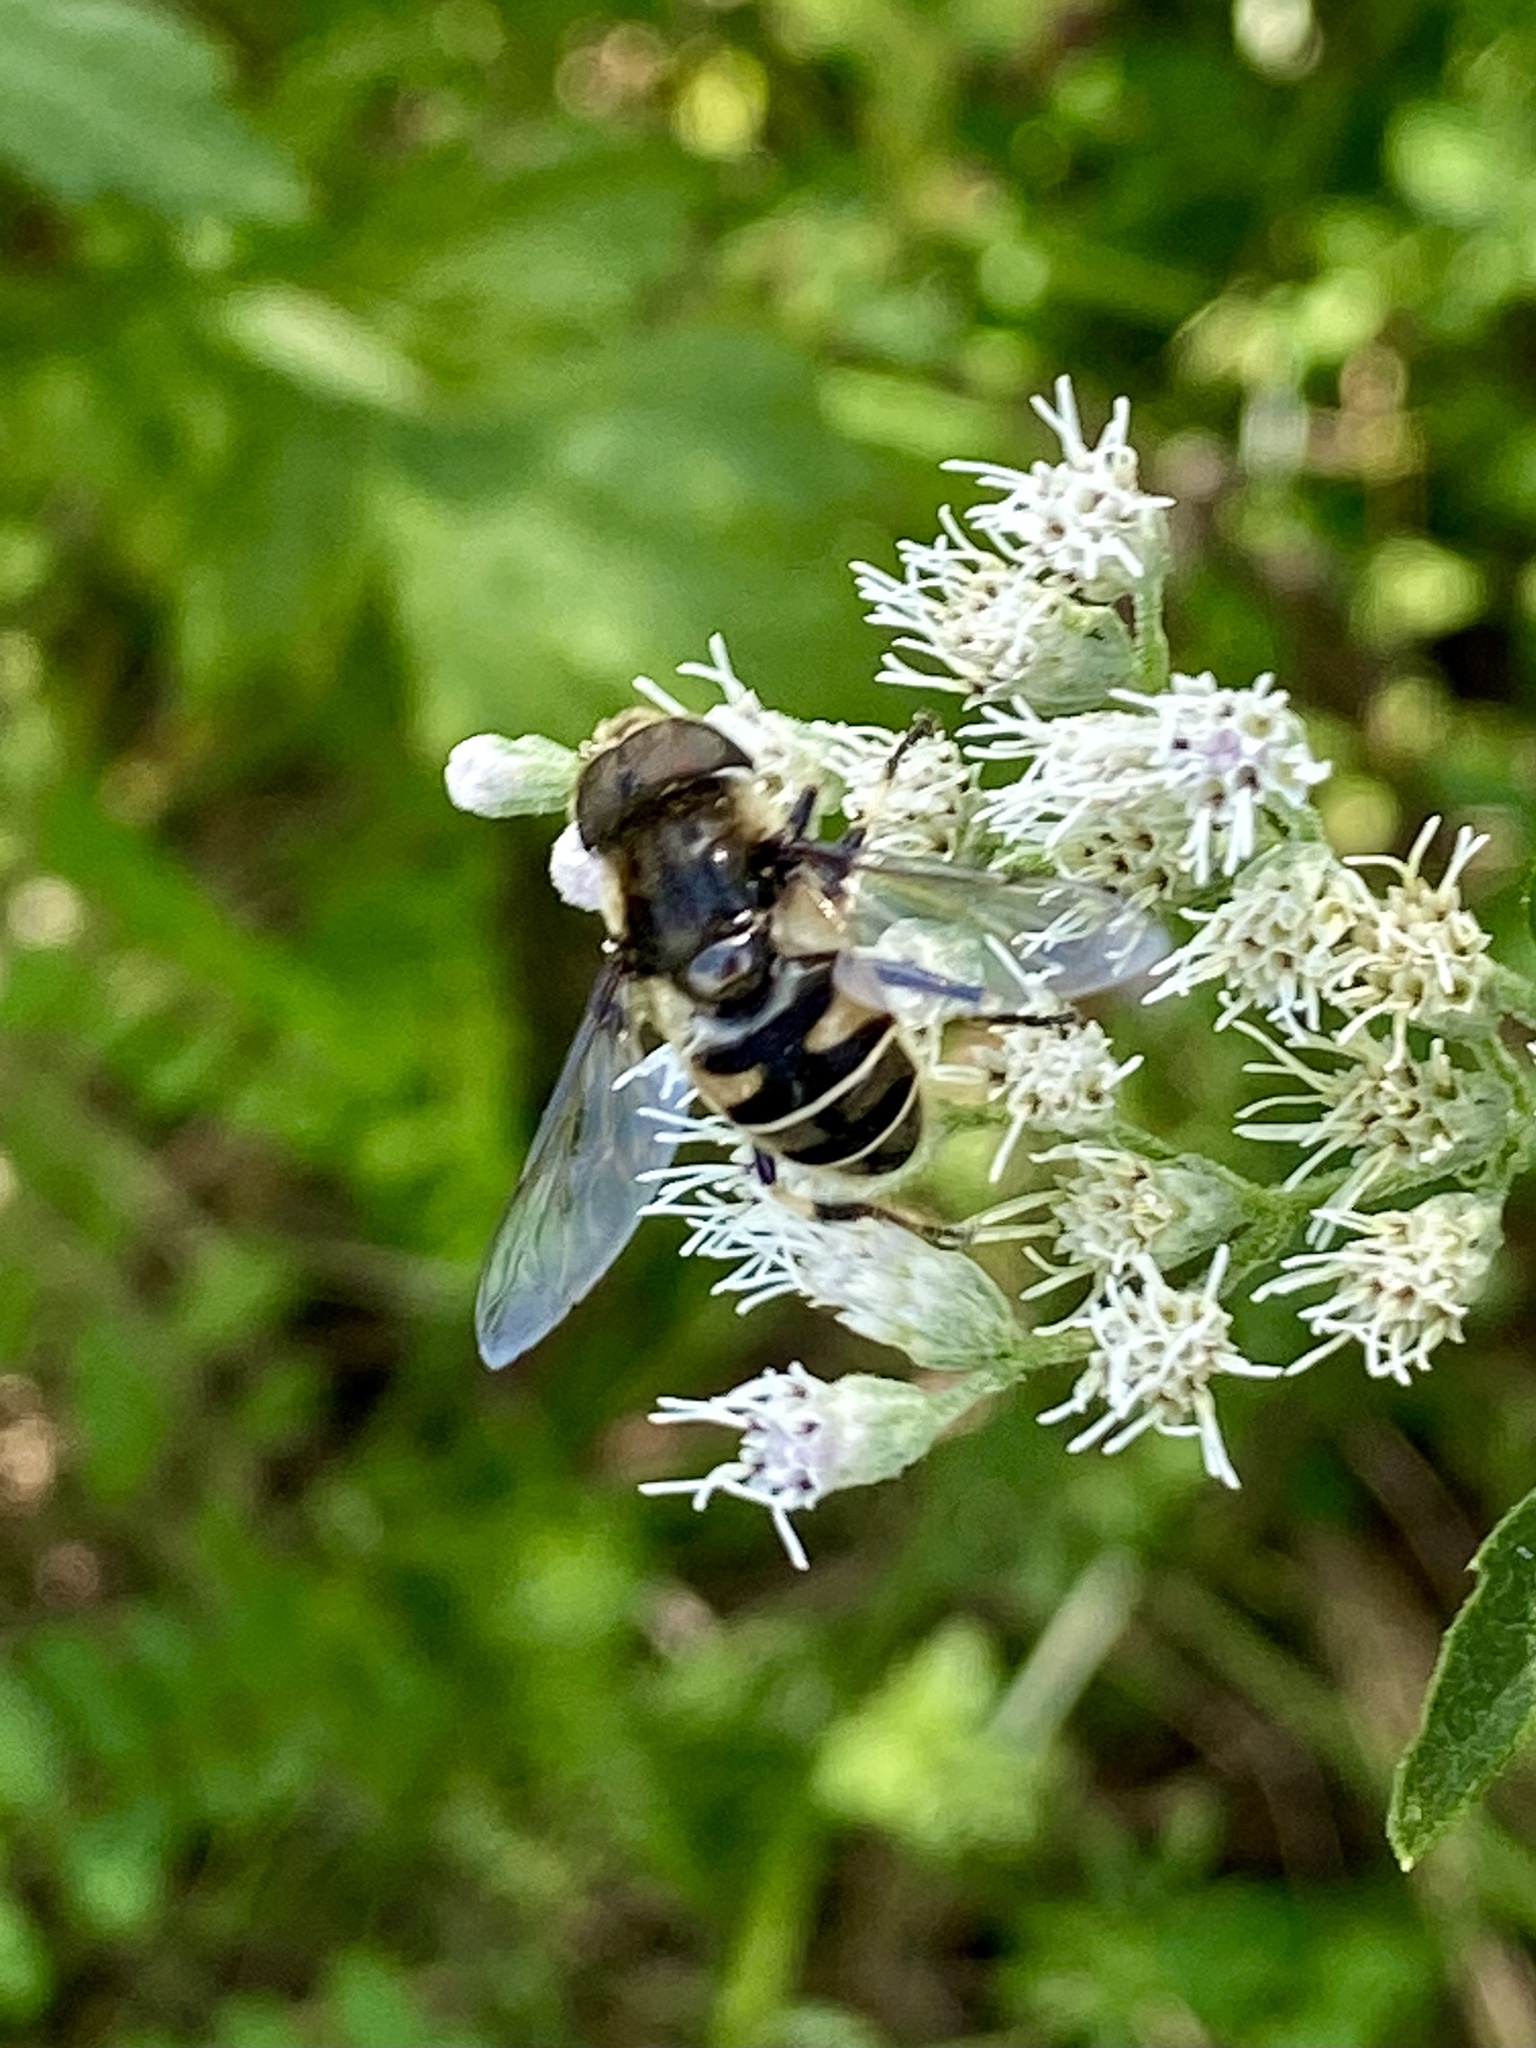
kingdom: Animalia
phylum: Arthropoda
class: Insecta
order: Diptera
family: Syrphidae
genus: Eristalis
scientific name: Eristalis dimidiata
